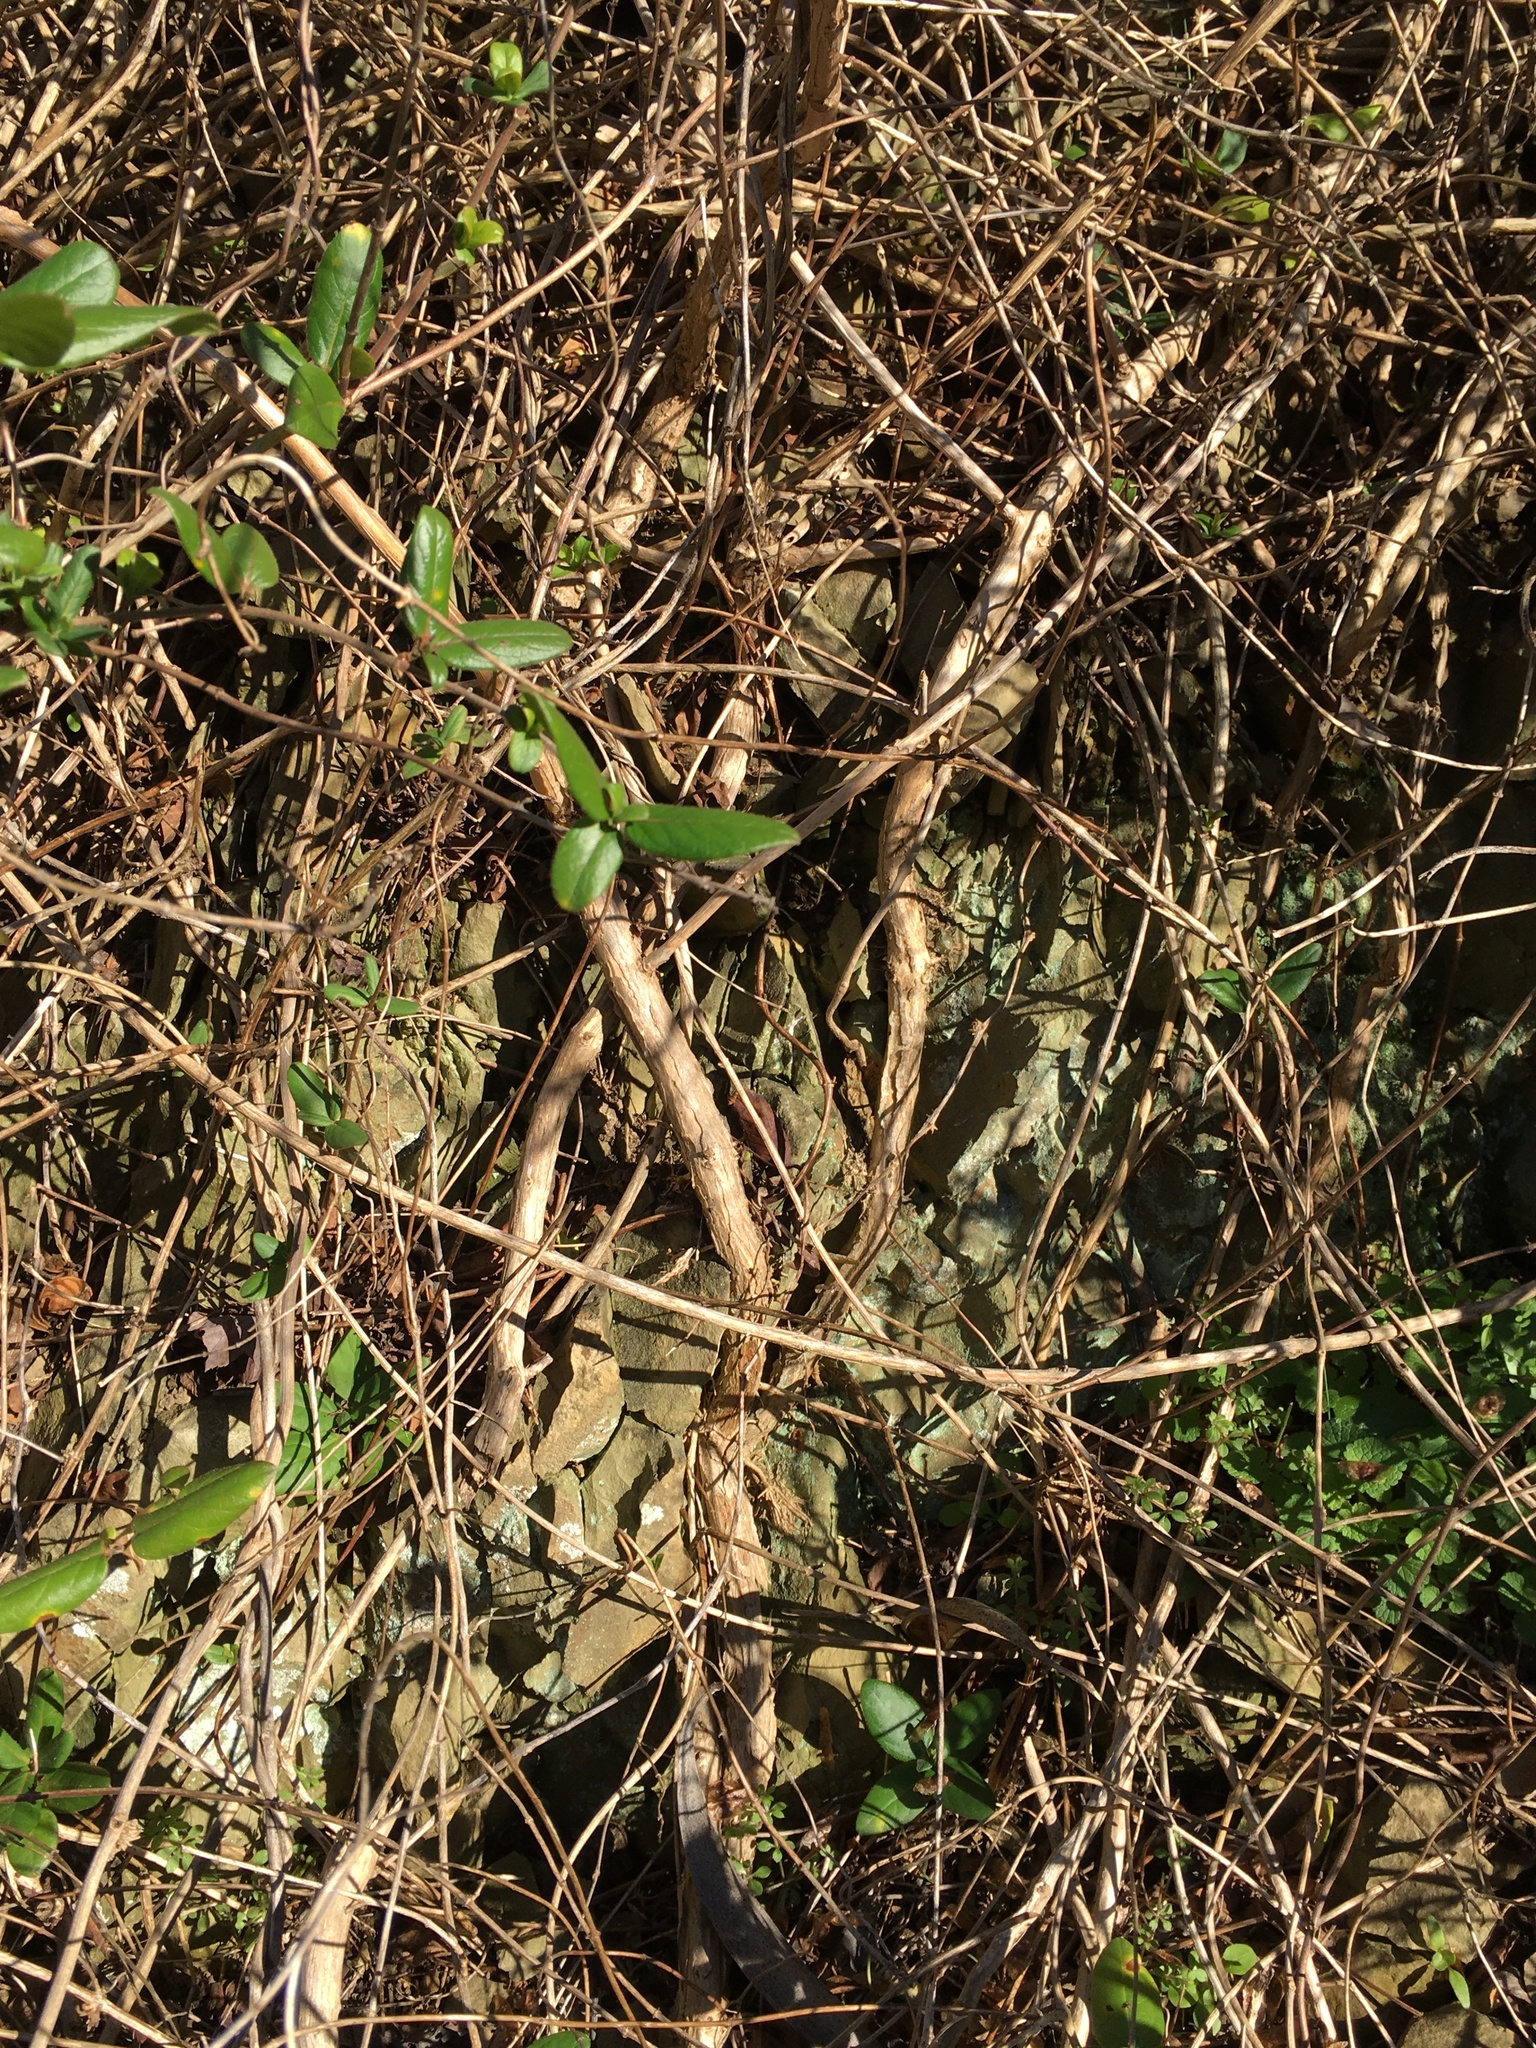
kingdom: Plantae
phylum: Tracheophyta
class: Magnoliopsida
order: Lamiales
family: Bignoniaceae
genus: Campsis
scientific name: Campsis radicans
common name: Trumpet-creeper
